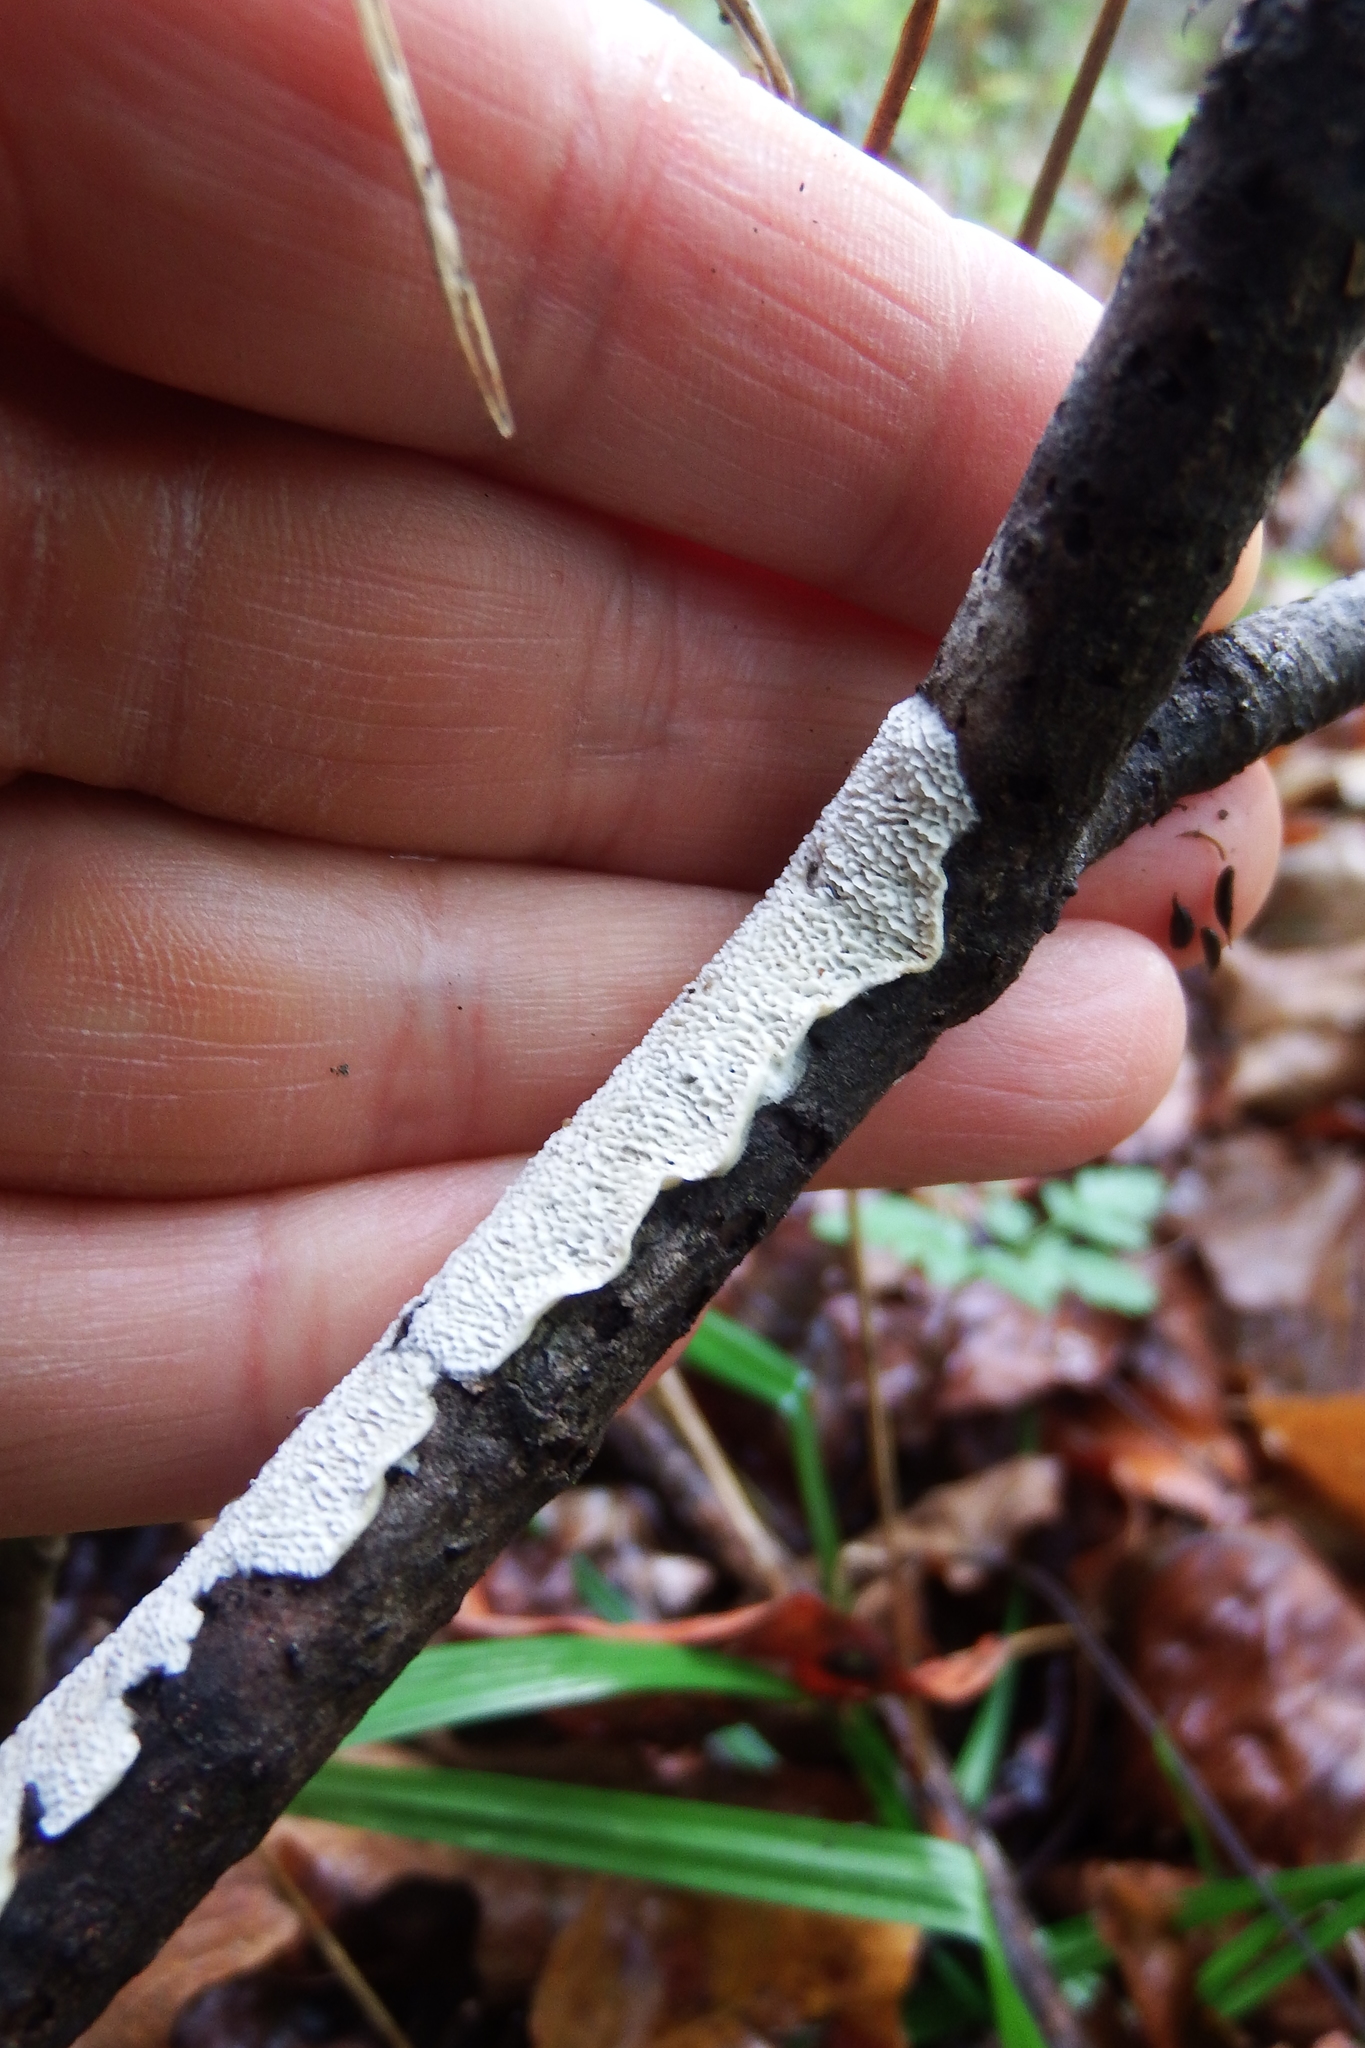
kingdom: Fungi
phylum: Basidiomycota
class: Agaricomycetes
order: Polyporales
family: Irpicaceae
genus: Irpex
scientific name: Irpex lacteus
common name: Milk-white toothed polypore
